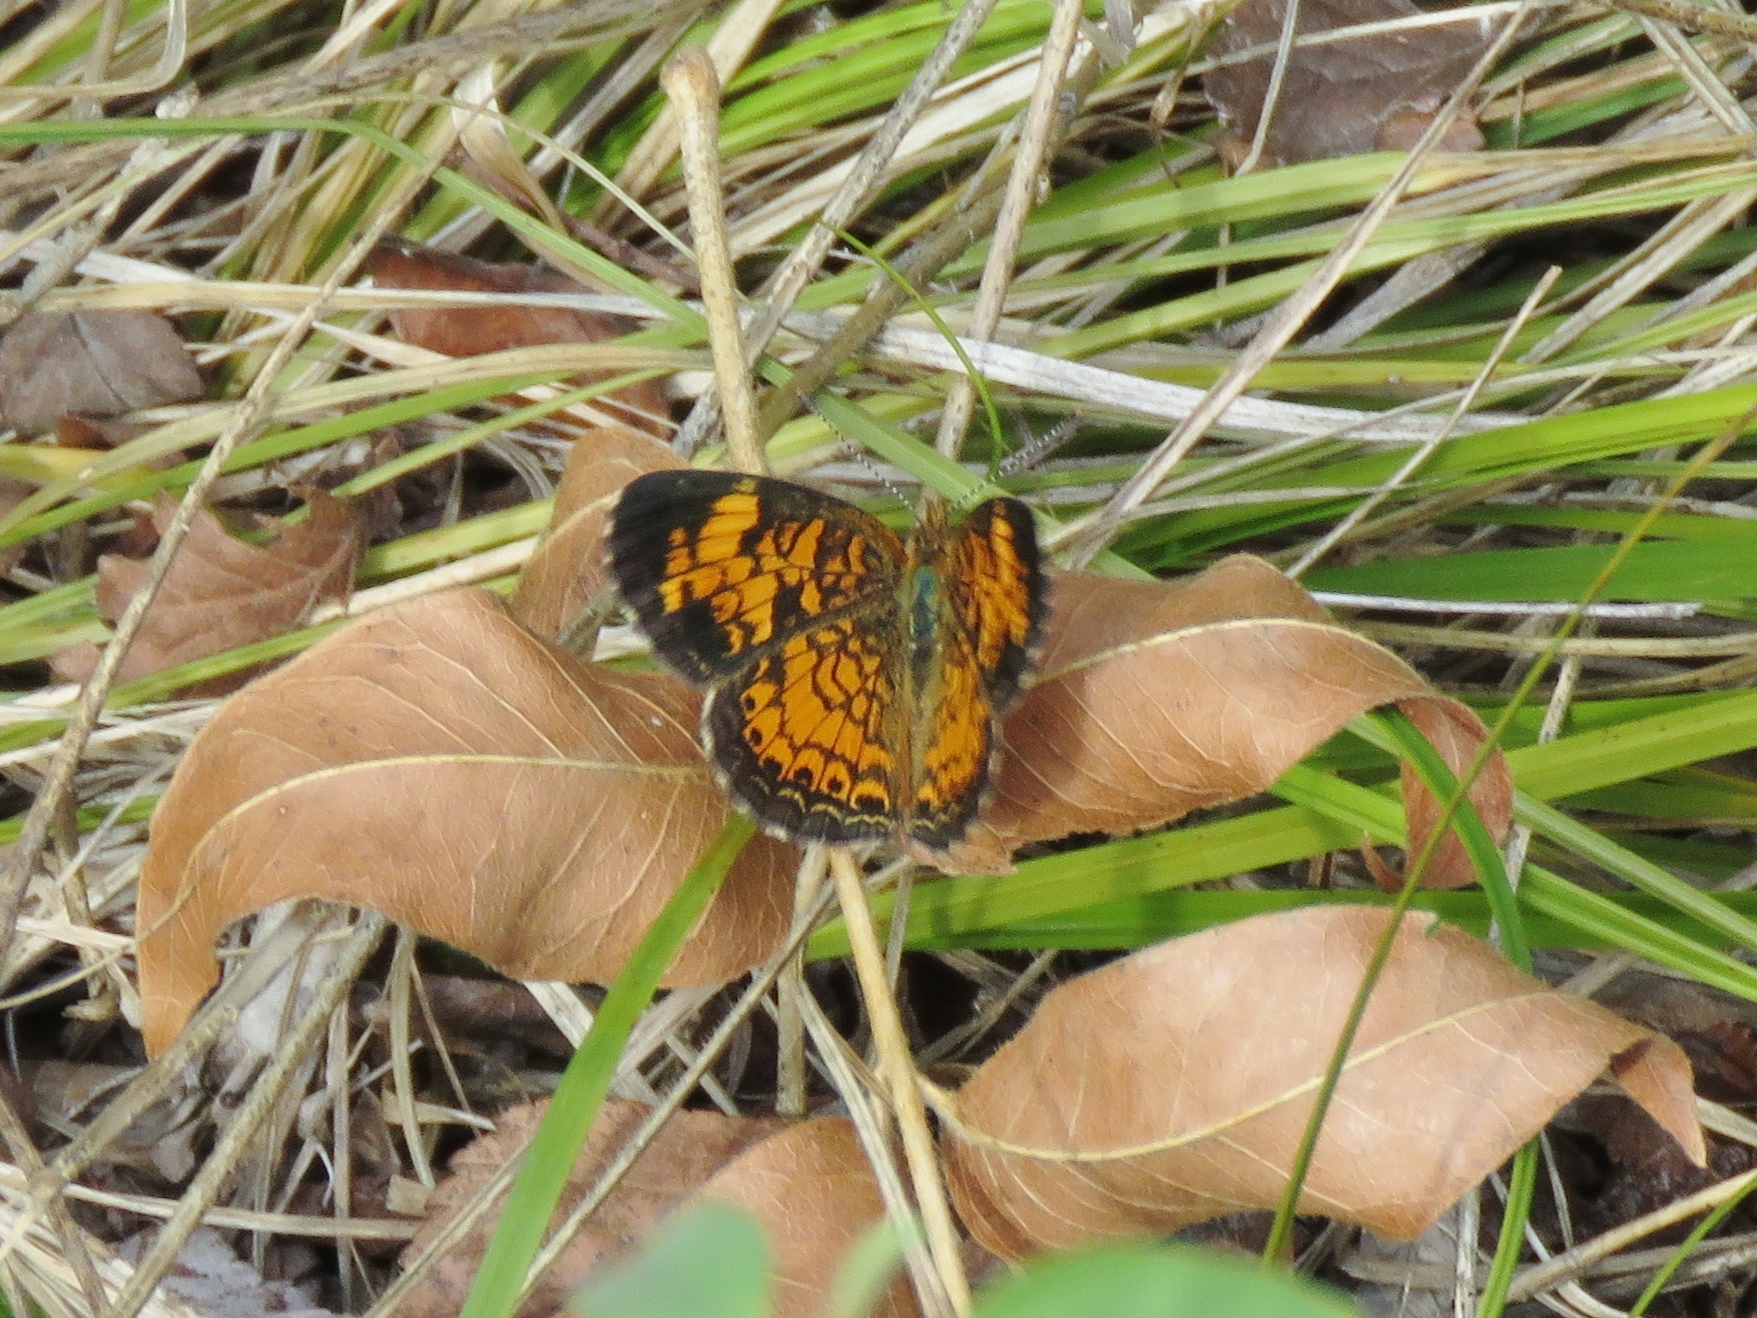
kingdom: Animalia
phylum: Arthropoda
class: Insecta
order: Lepidoptera
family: Nymphalidae
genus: Phyciodes
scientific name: Phyciodes tharos
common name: Pearl crescent
